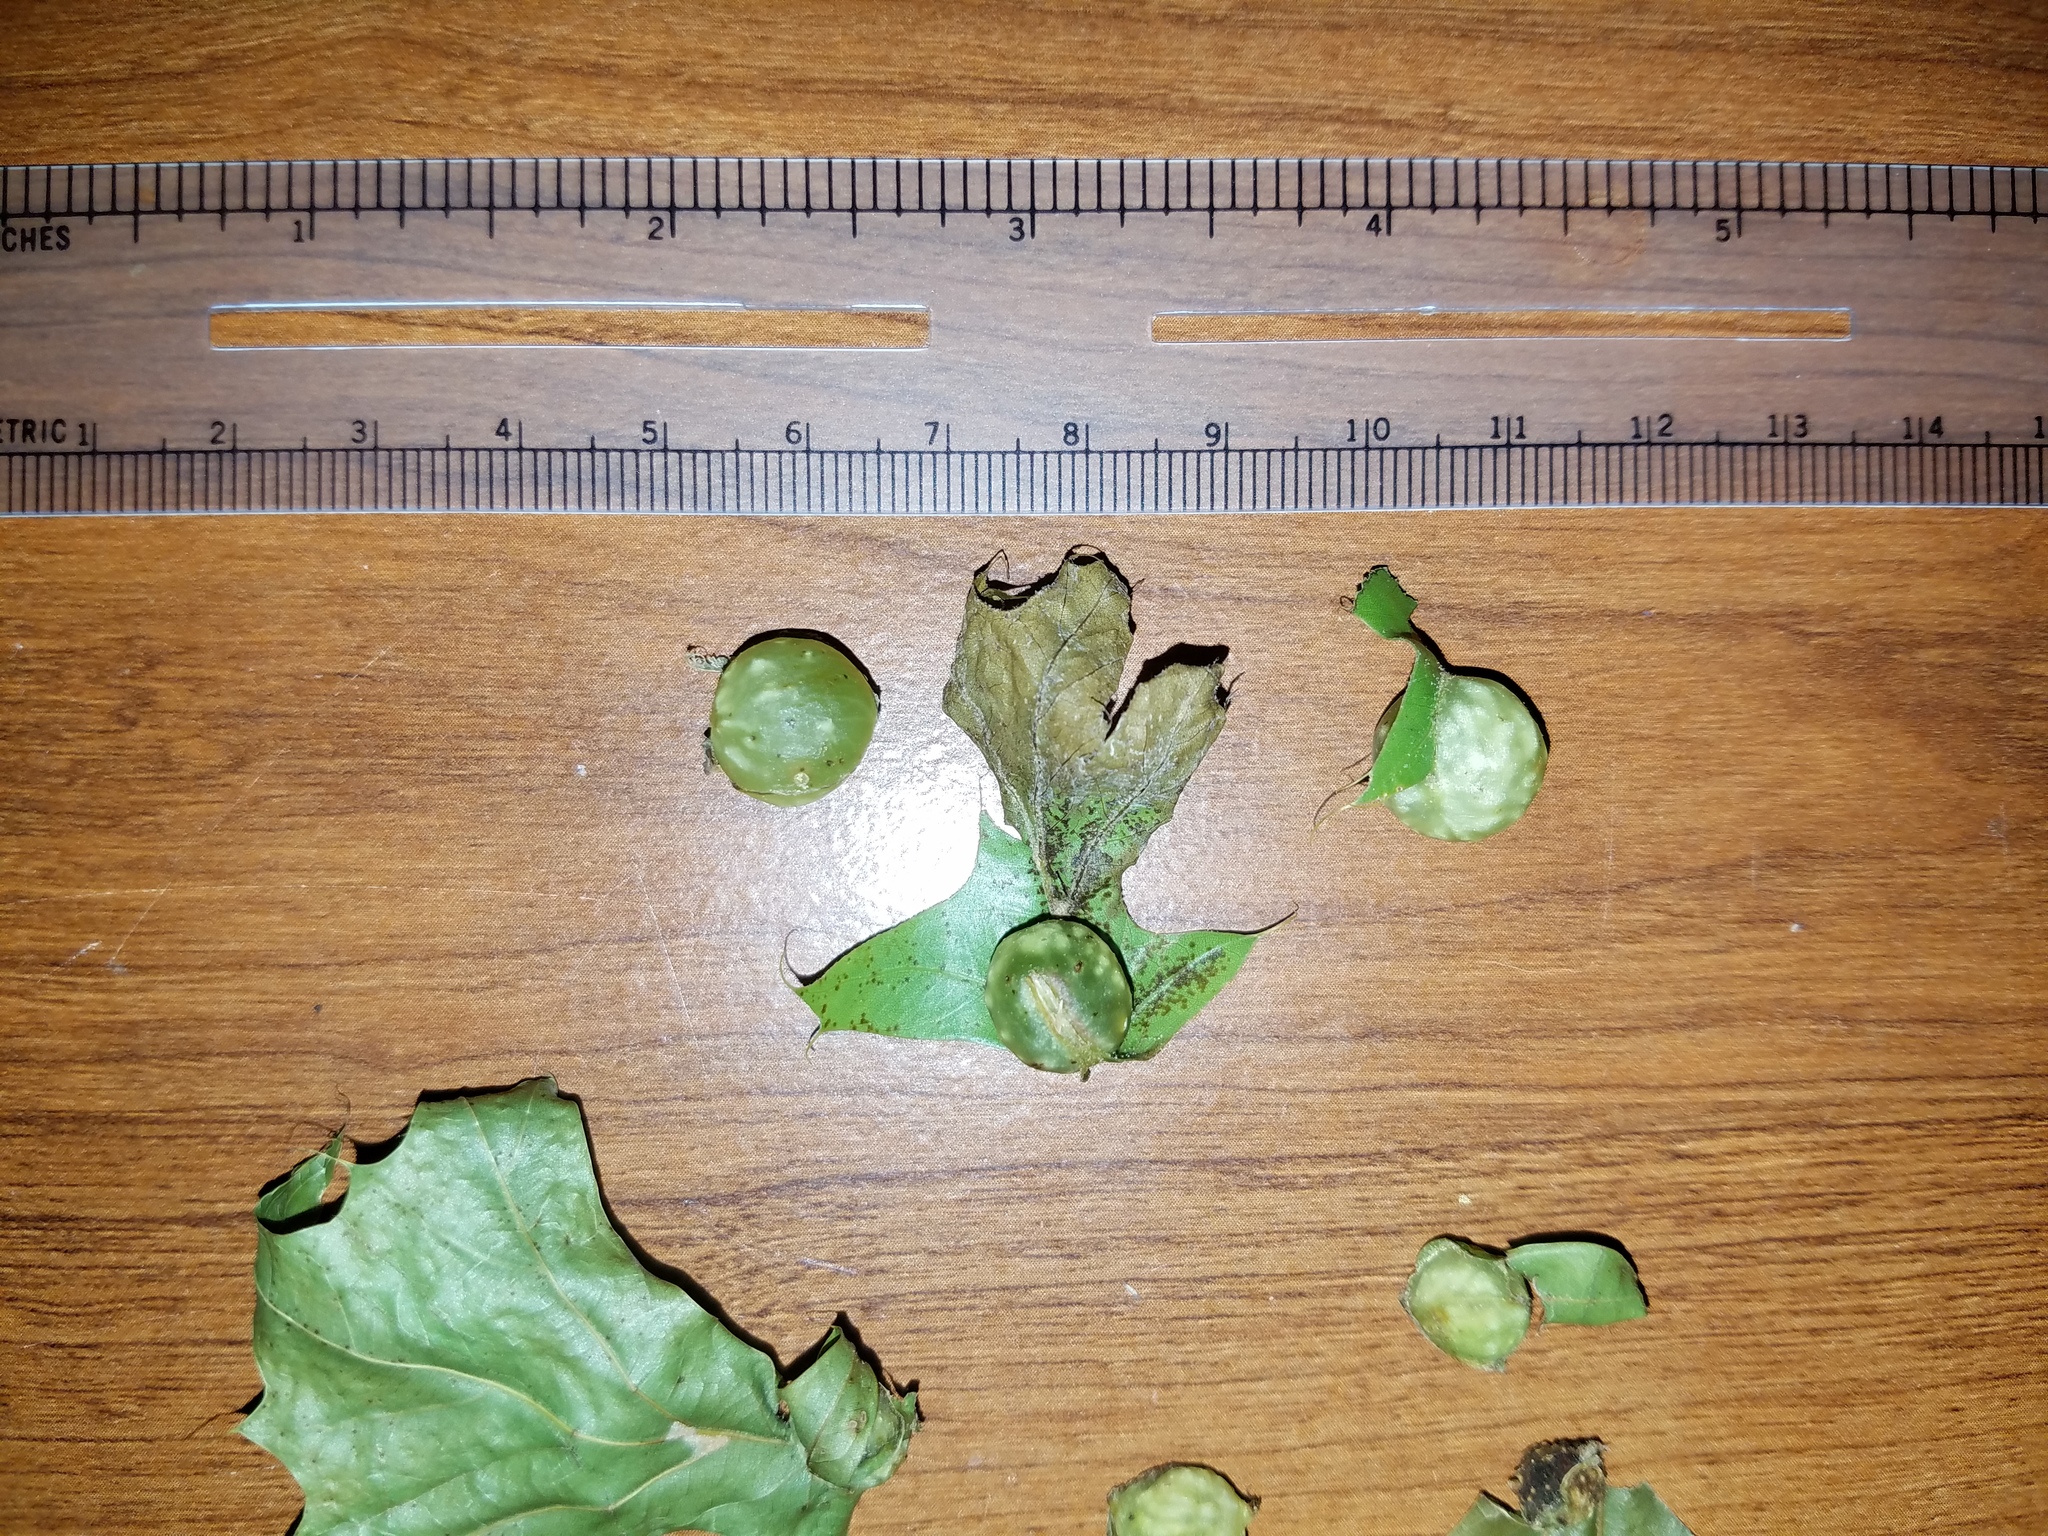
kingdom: Animalia
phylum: Arthropoda
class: Insecta
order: Hymenoptera
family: Cynipidae
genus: Dryocosmus
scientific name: Dryocosmus quercuspalustris
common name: Succulent oak gall wasp
